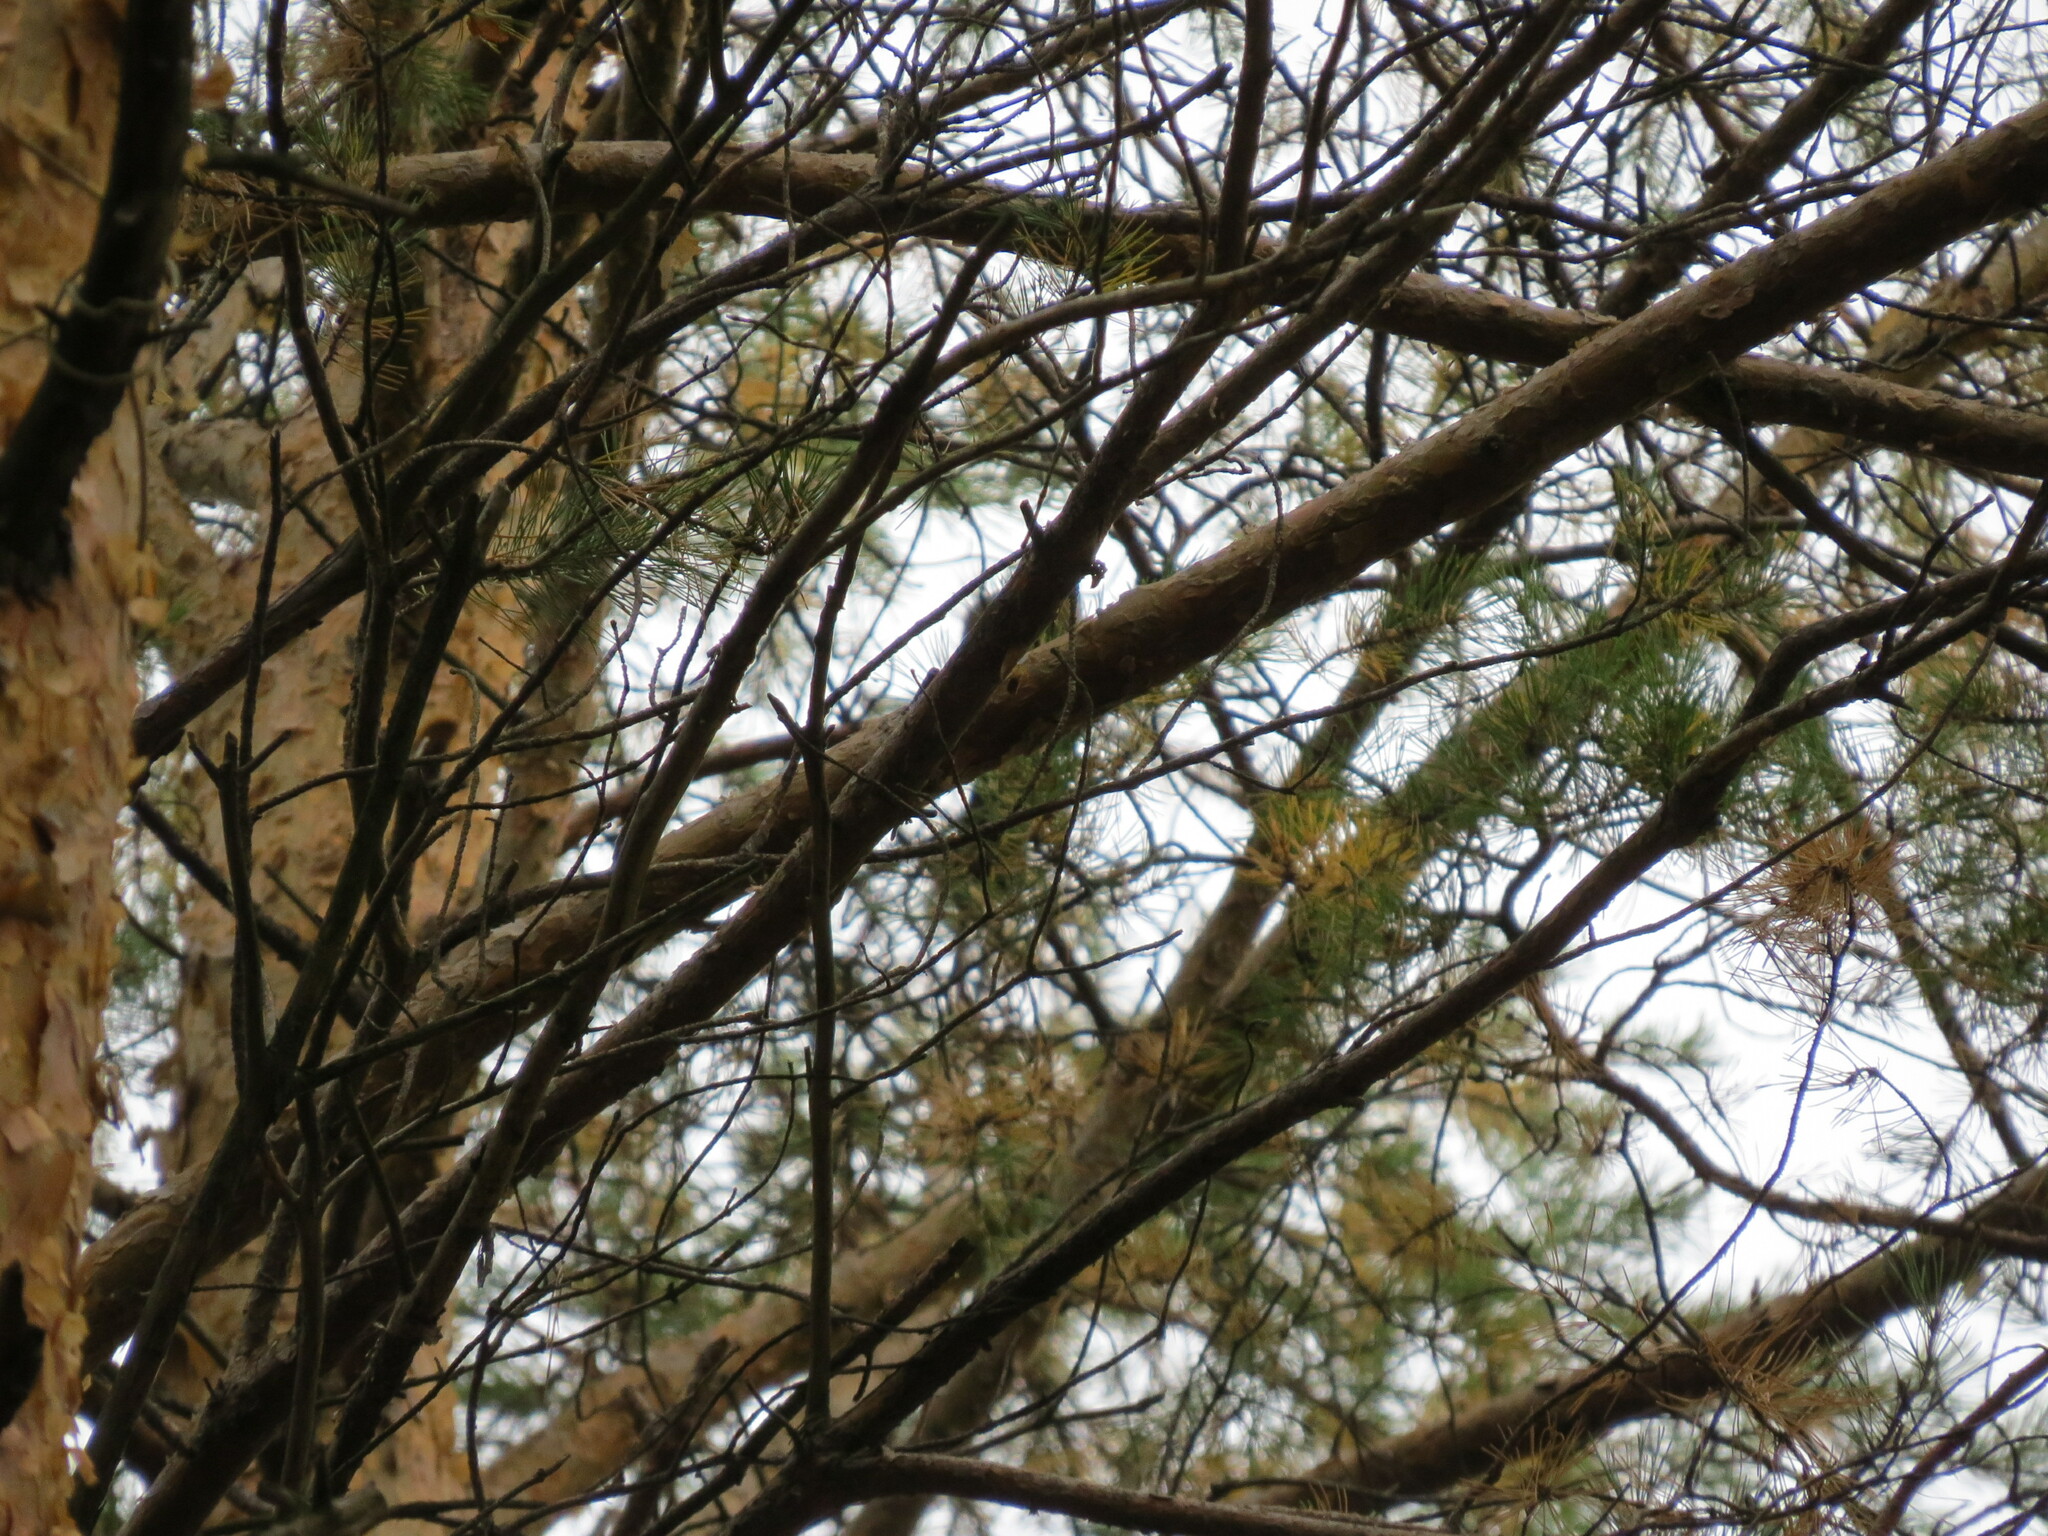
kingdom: Animalia
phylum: Chordata
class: Aves
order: Passeriformes
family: Corvidae
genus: Garrulus
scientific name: Garrulus glandarius
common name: Eurasian jay
